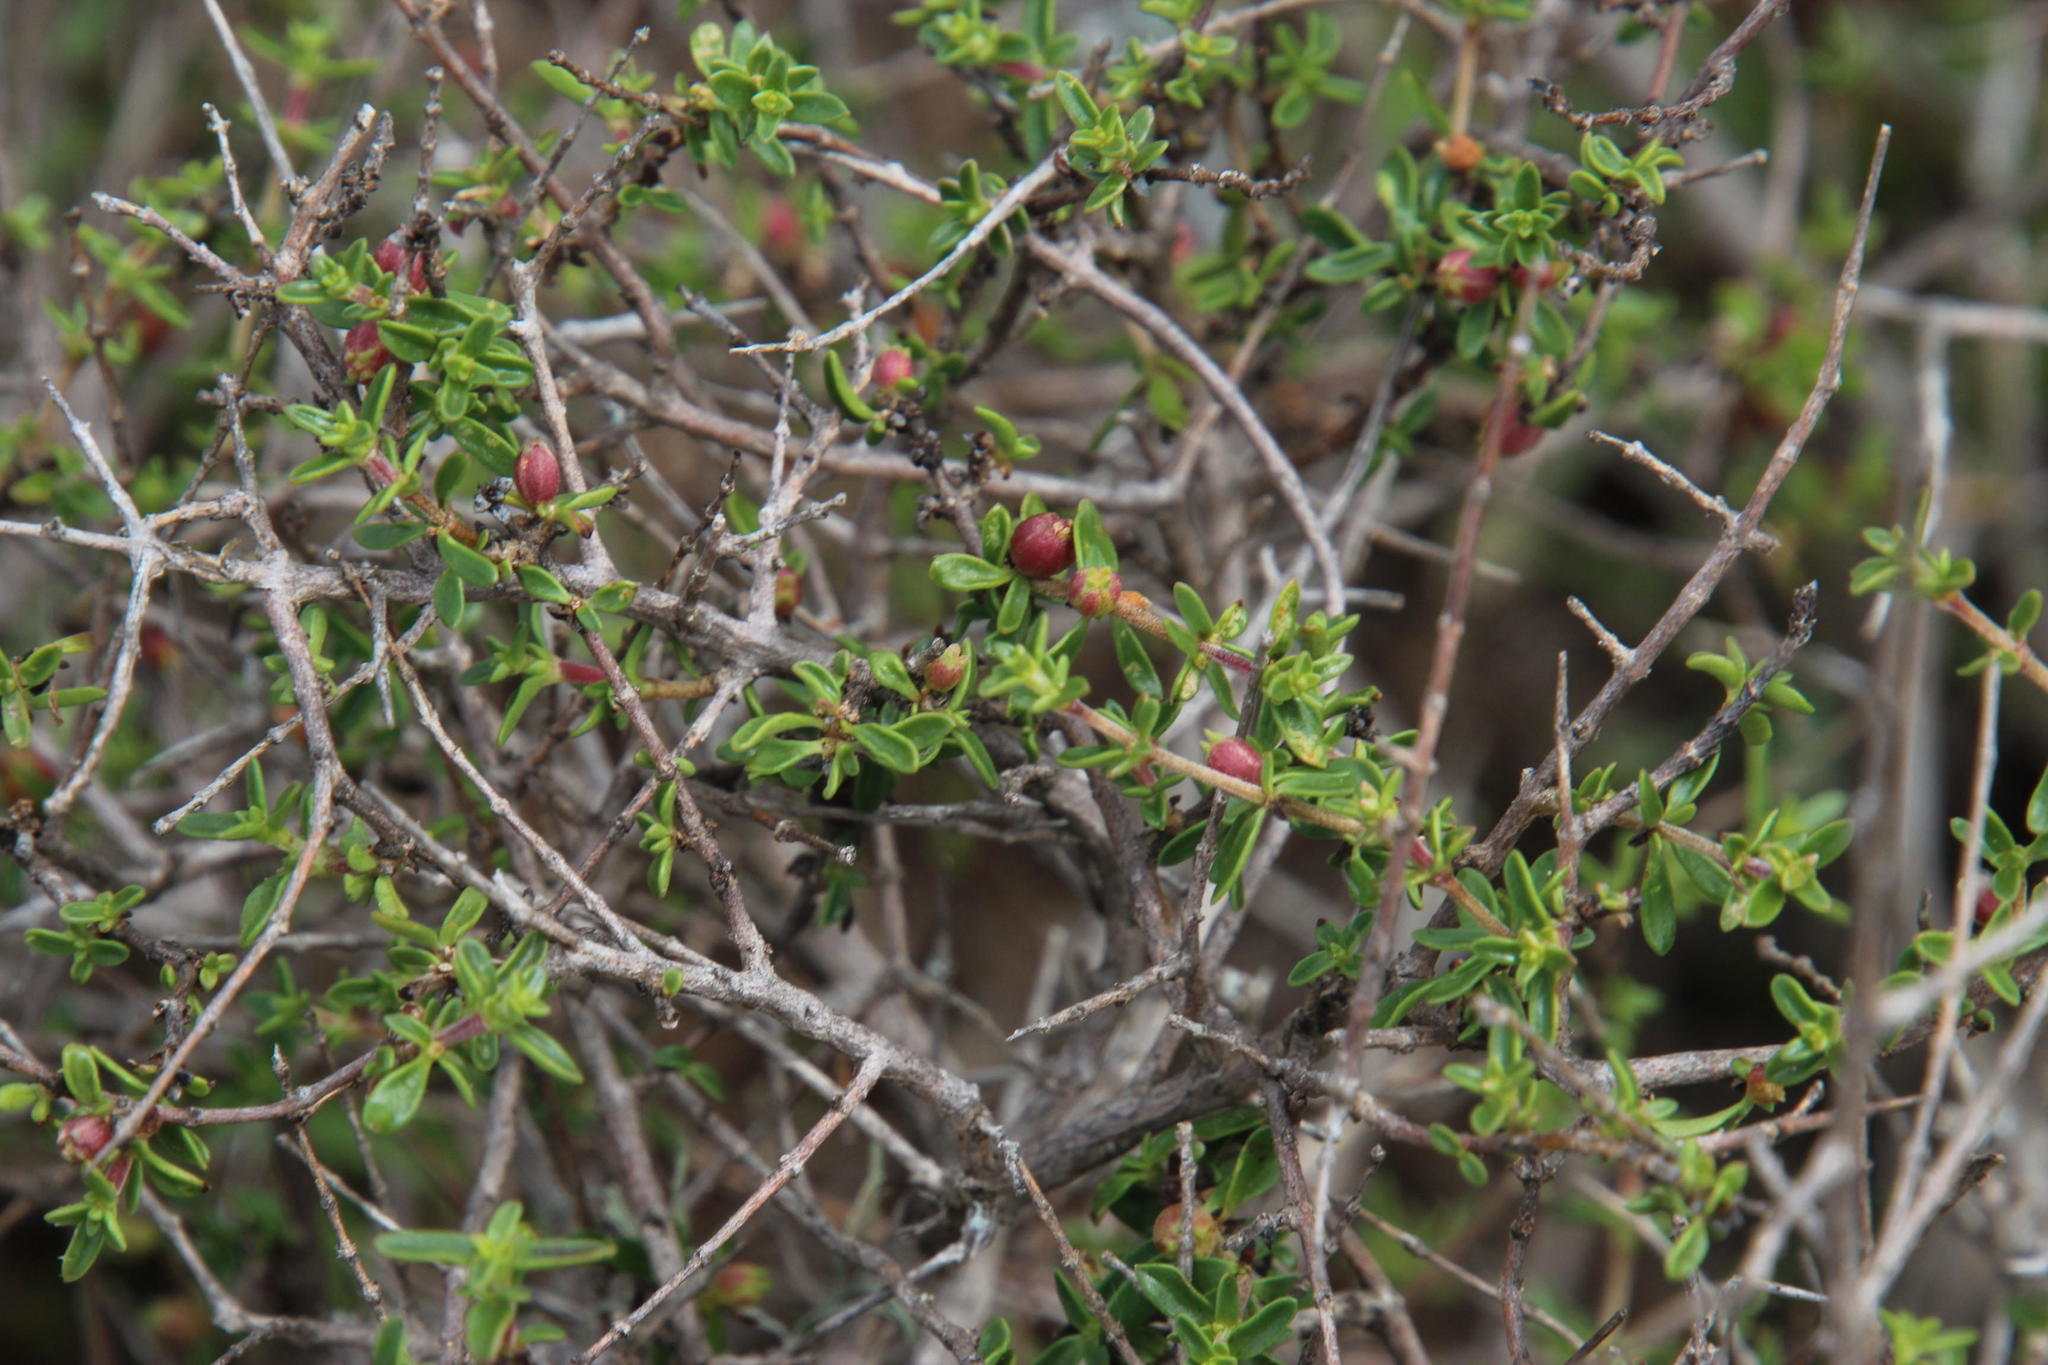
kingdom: Plantae
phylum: Tracheophyta
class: Magnoliopsida
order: Gentianales
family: Rubiaceae
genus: Nenax
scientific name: Nenax microphylla
